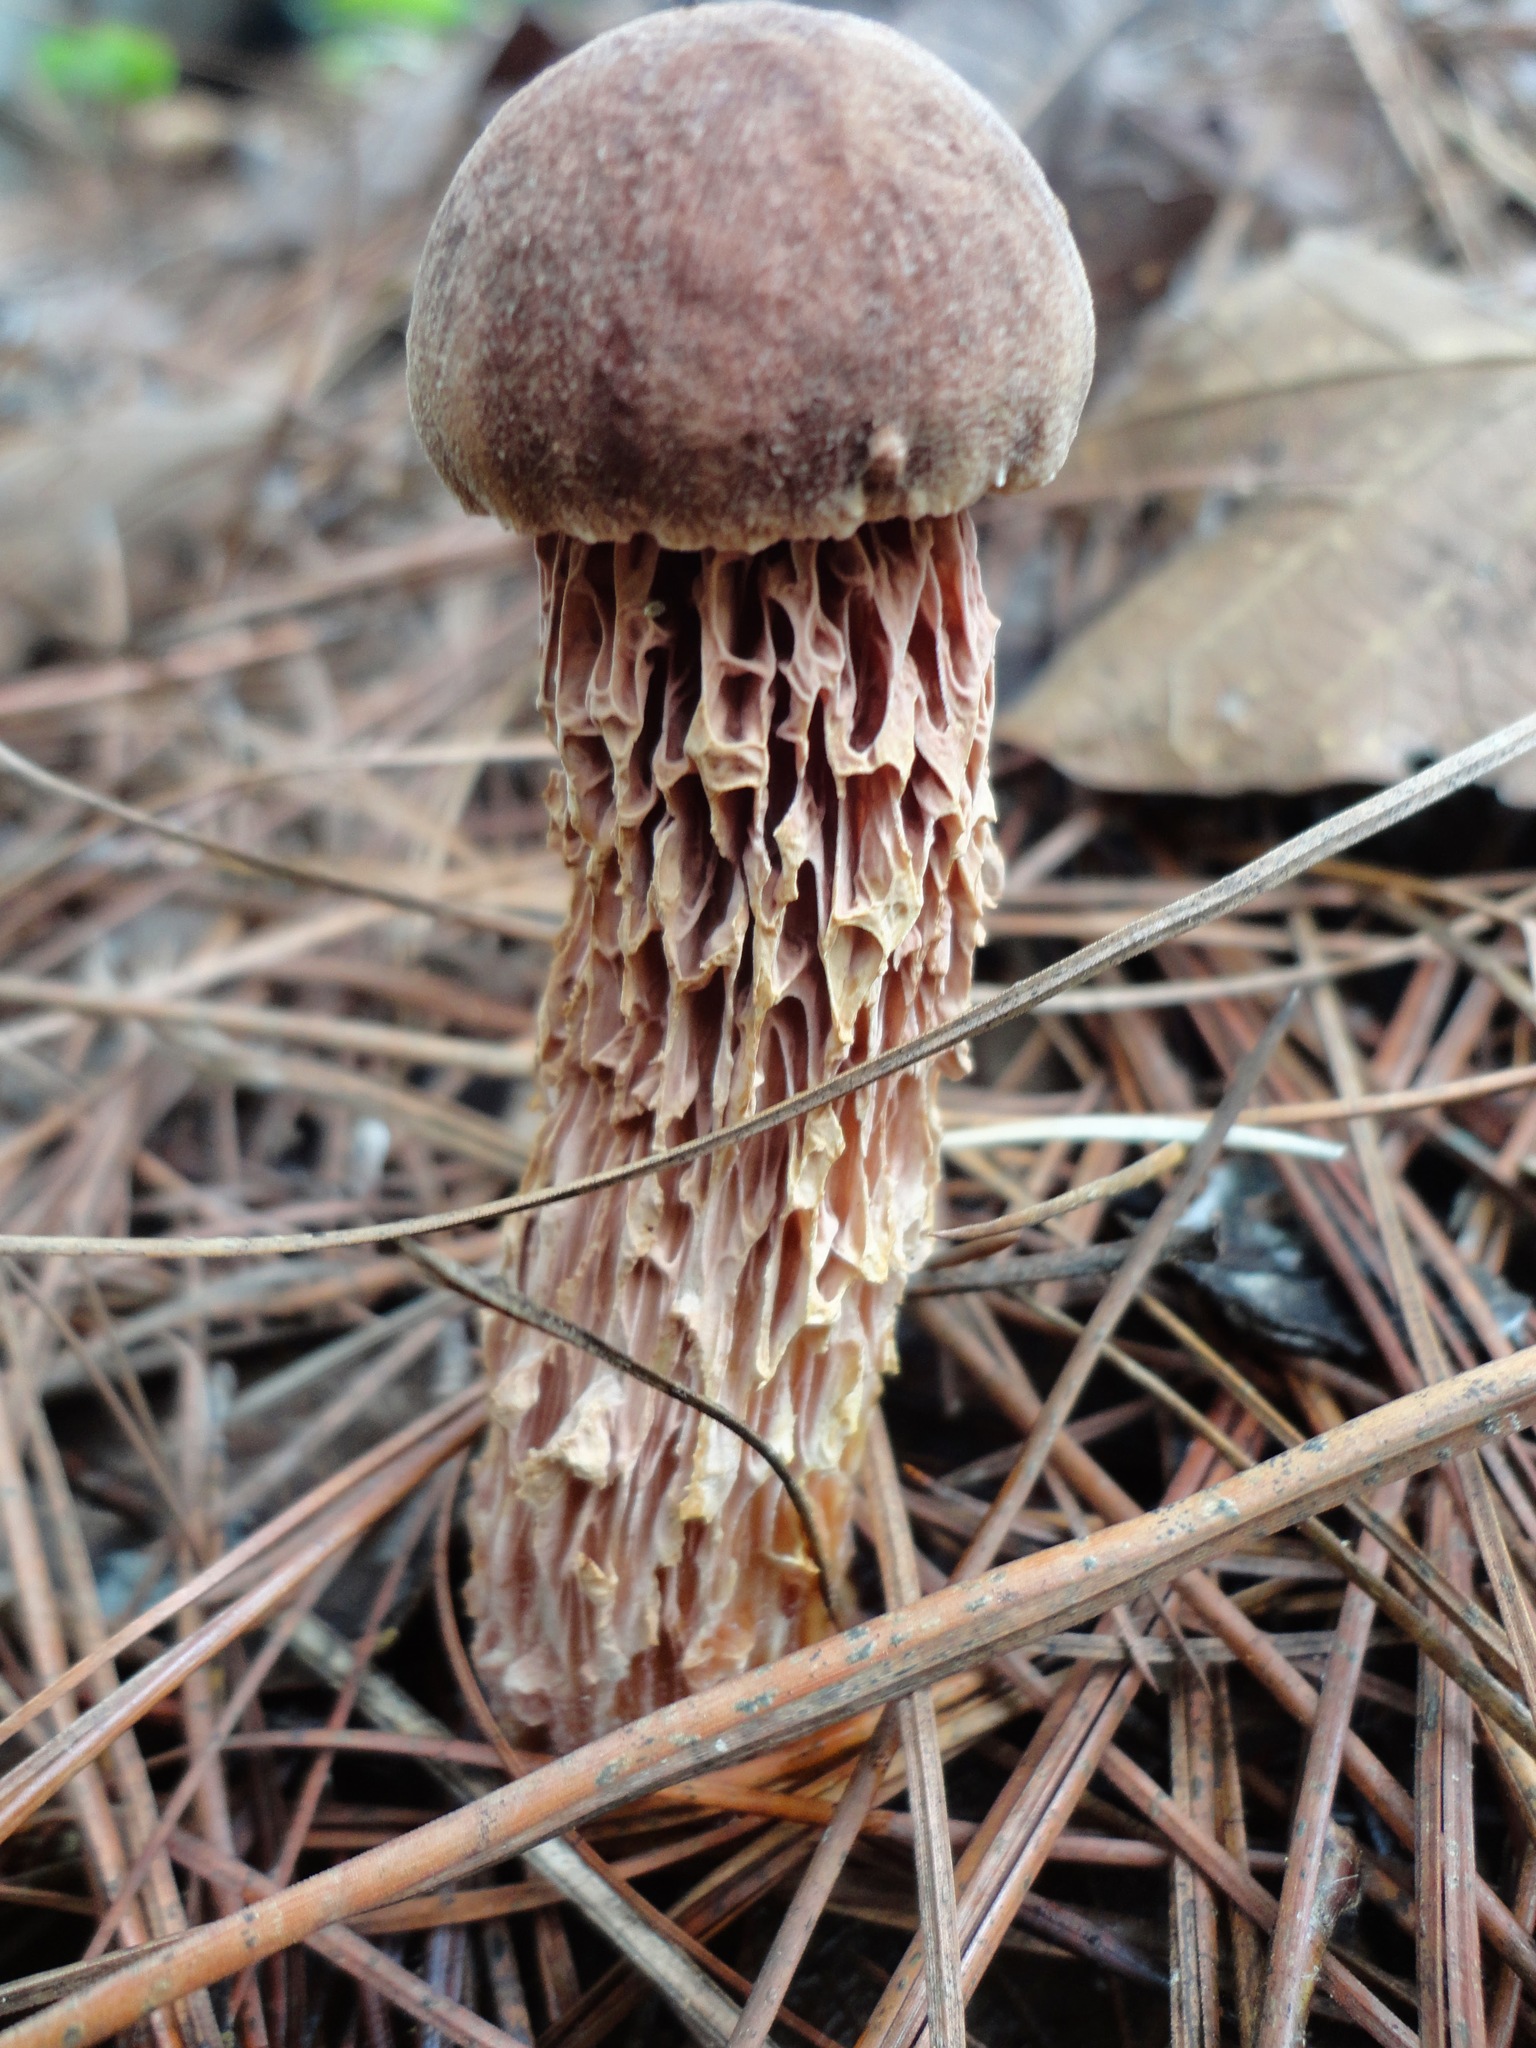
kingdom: Fungi
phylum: Basidiomycota
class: Agaricomycetes
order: Boletales
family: Boletaceae
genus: Aureoboletus
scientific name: Aureoboletus russellii
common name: Russell's bolete
